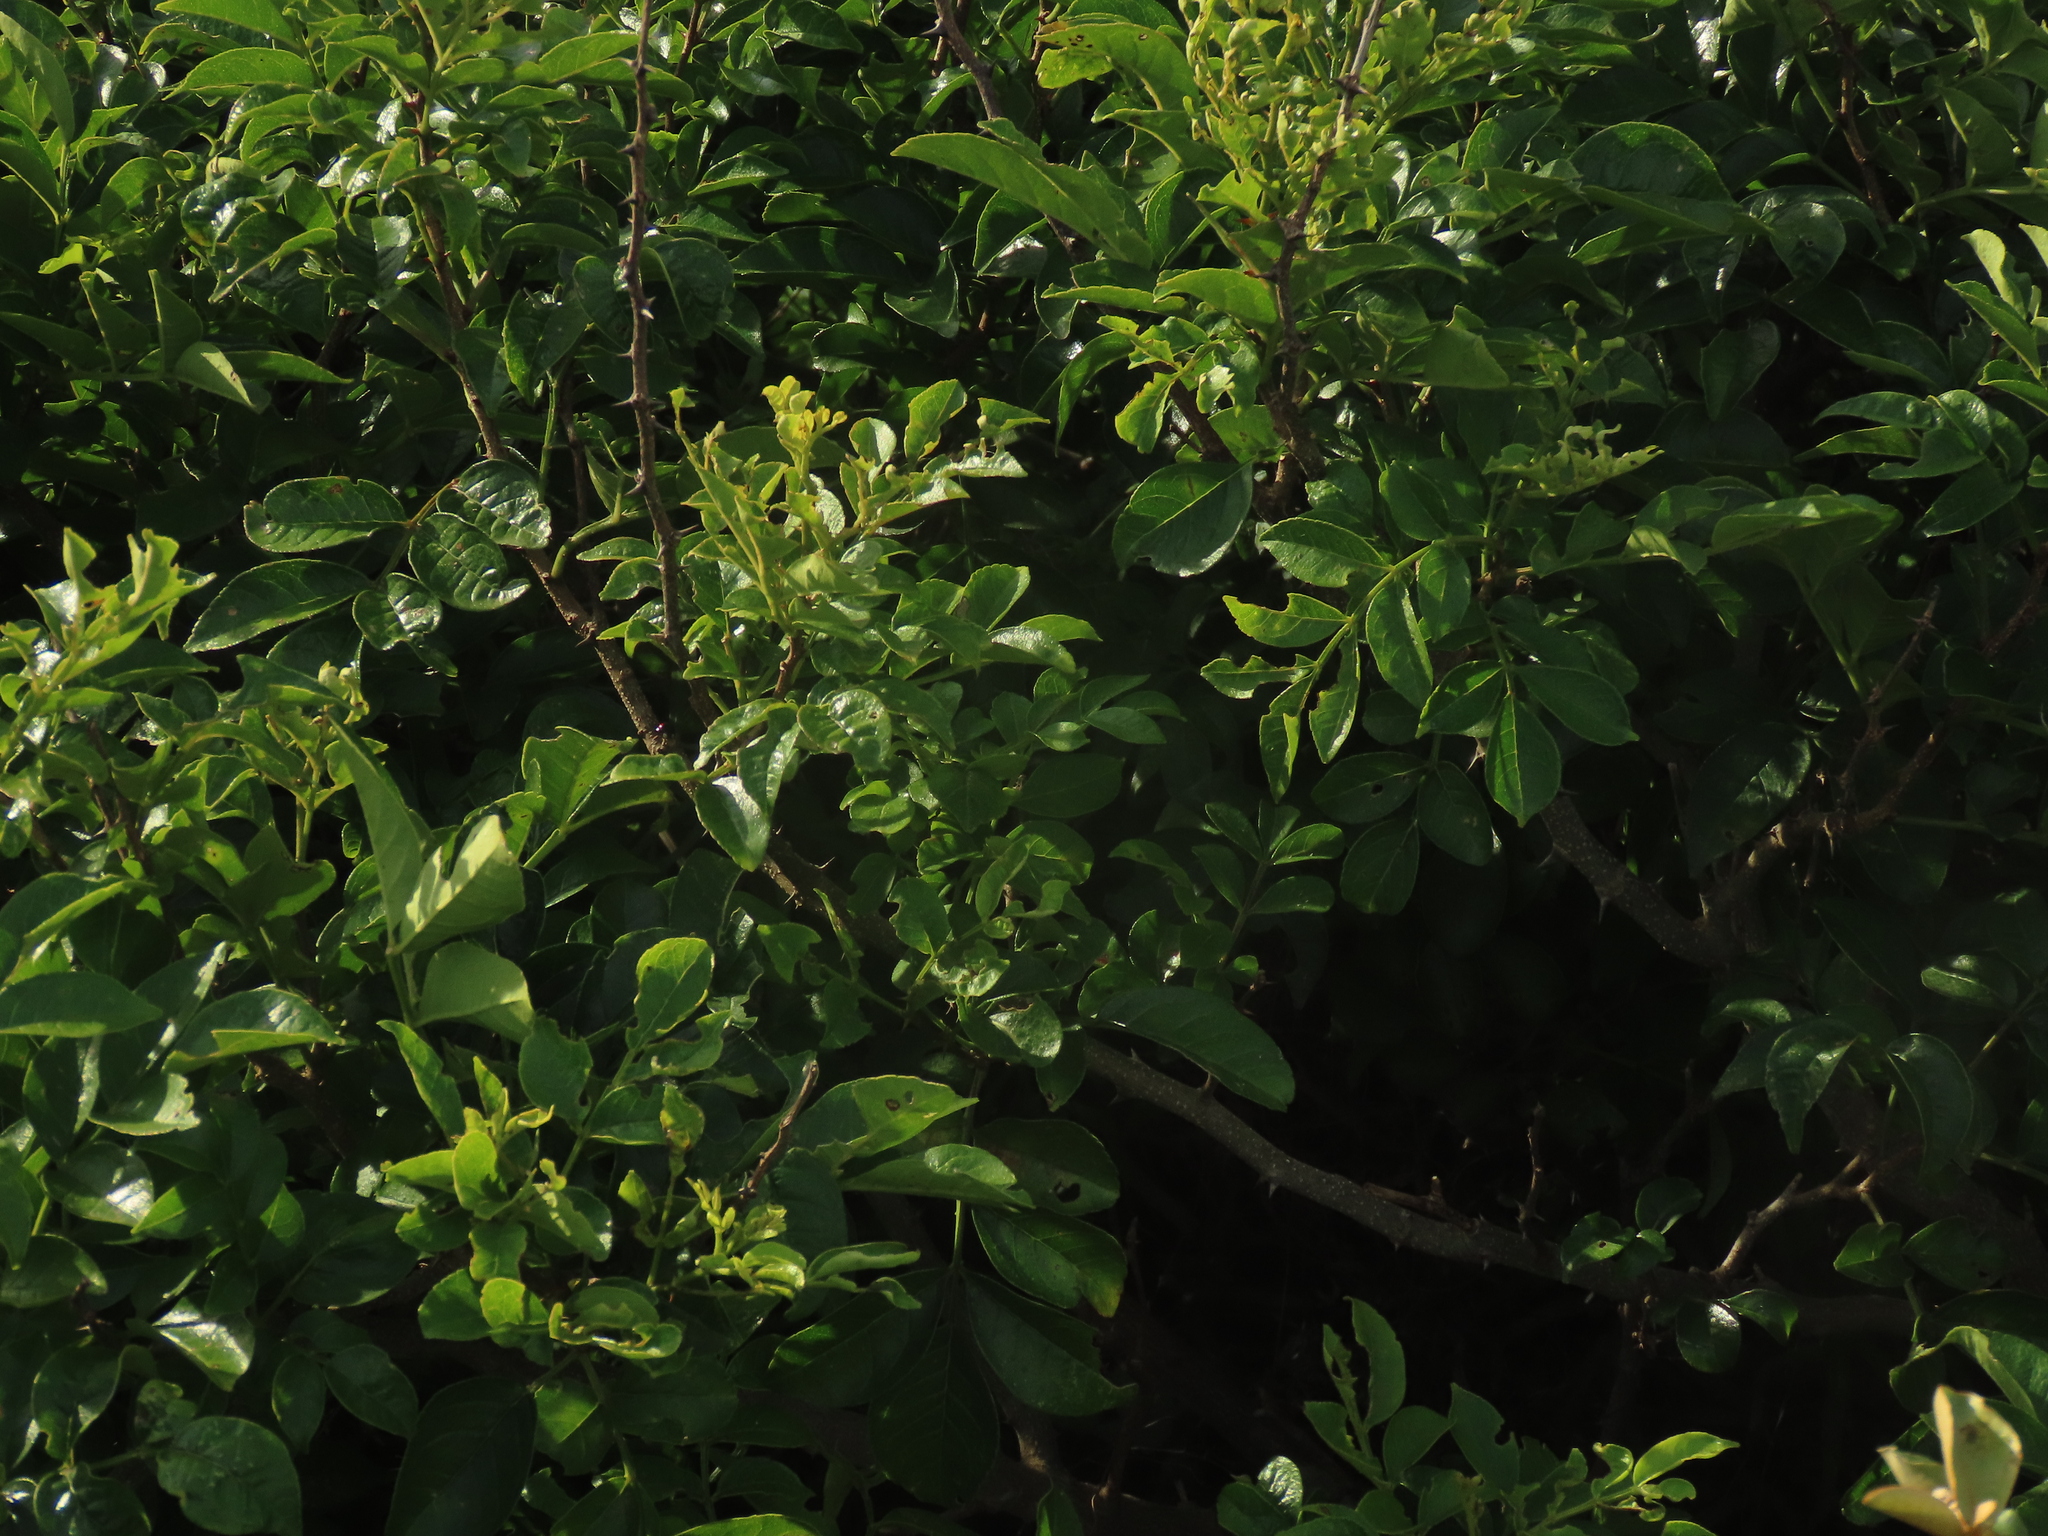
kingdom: Plantae
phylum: Tracheophyta
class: Magnoliopsida
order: Sapindales
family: Rutaceae
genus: Zanthoxylum
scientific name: Zanthoxylum simulans
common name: Chinese-pepper
